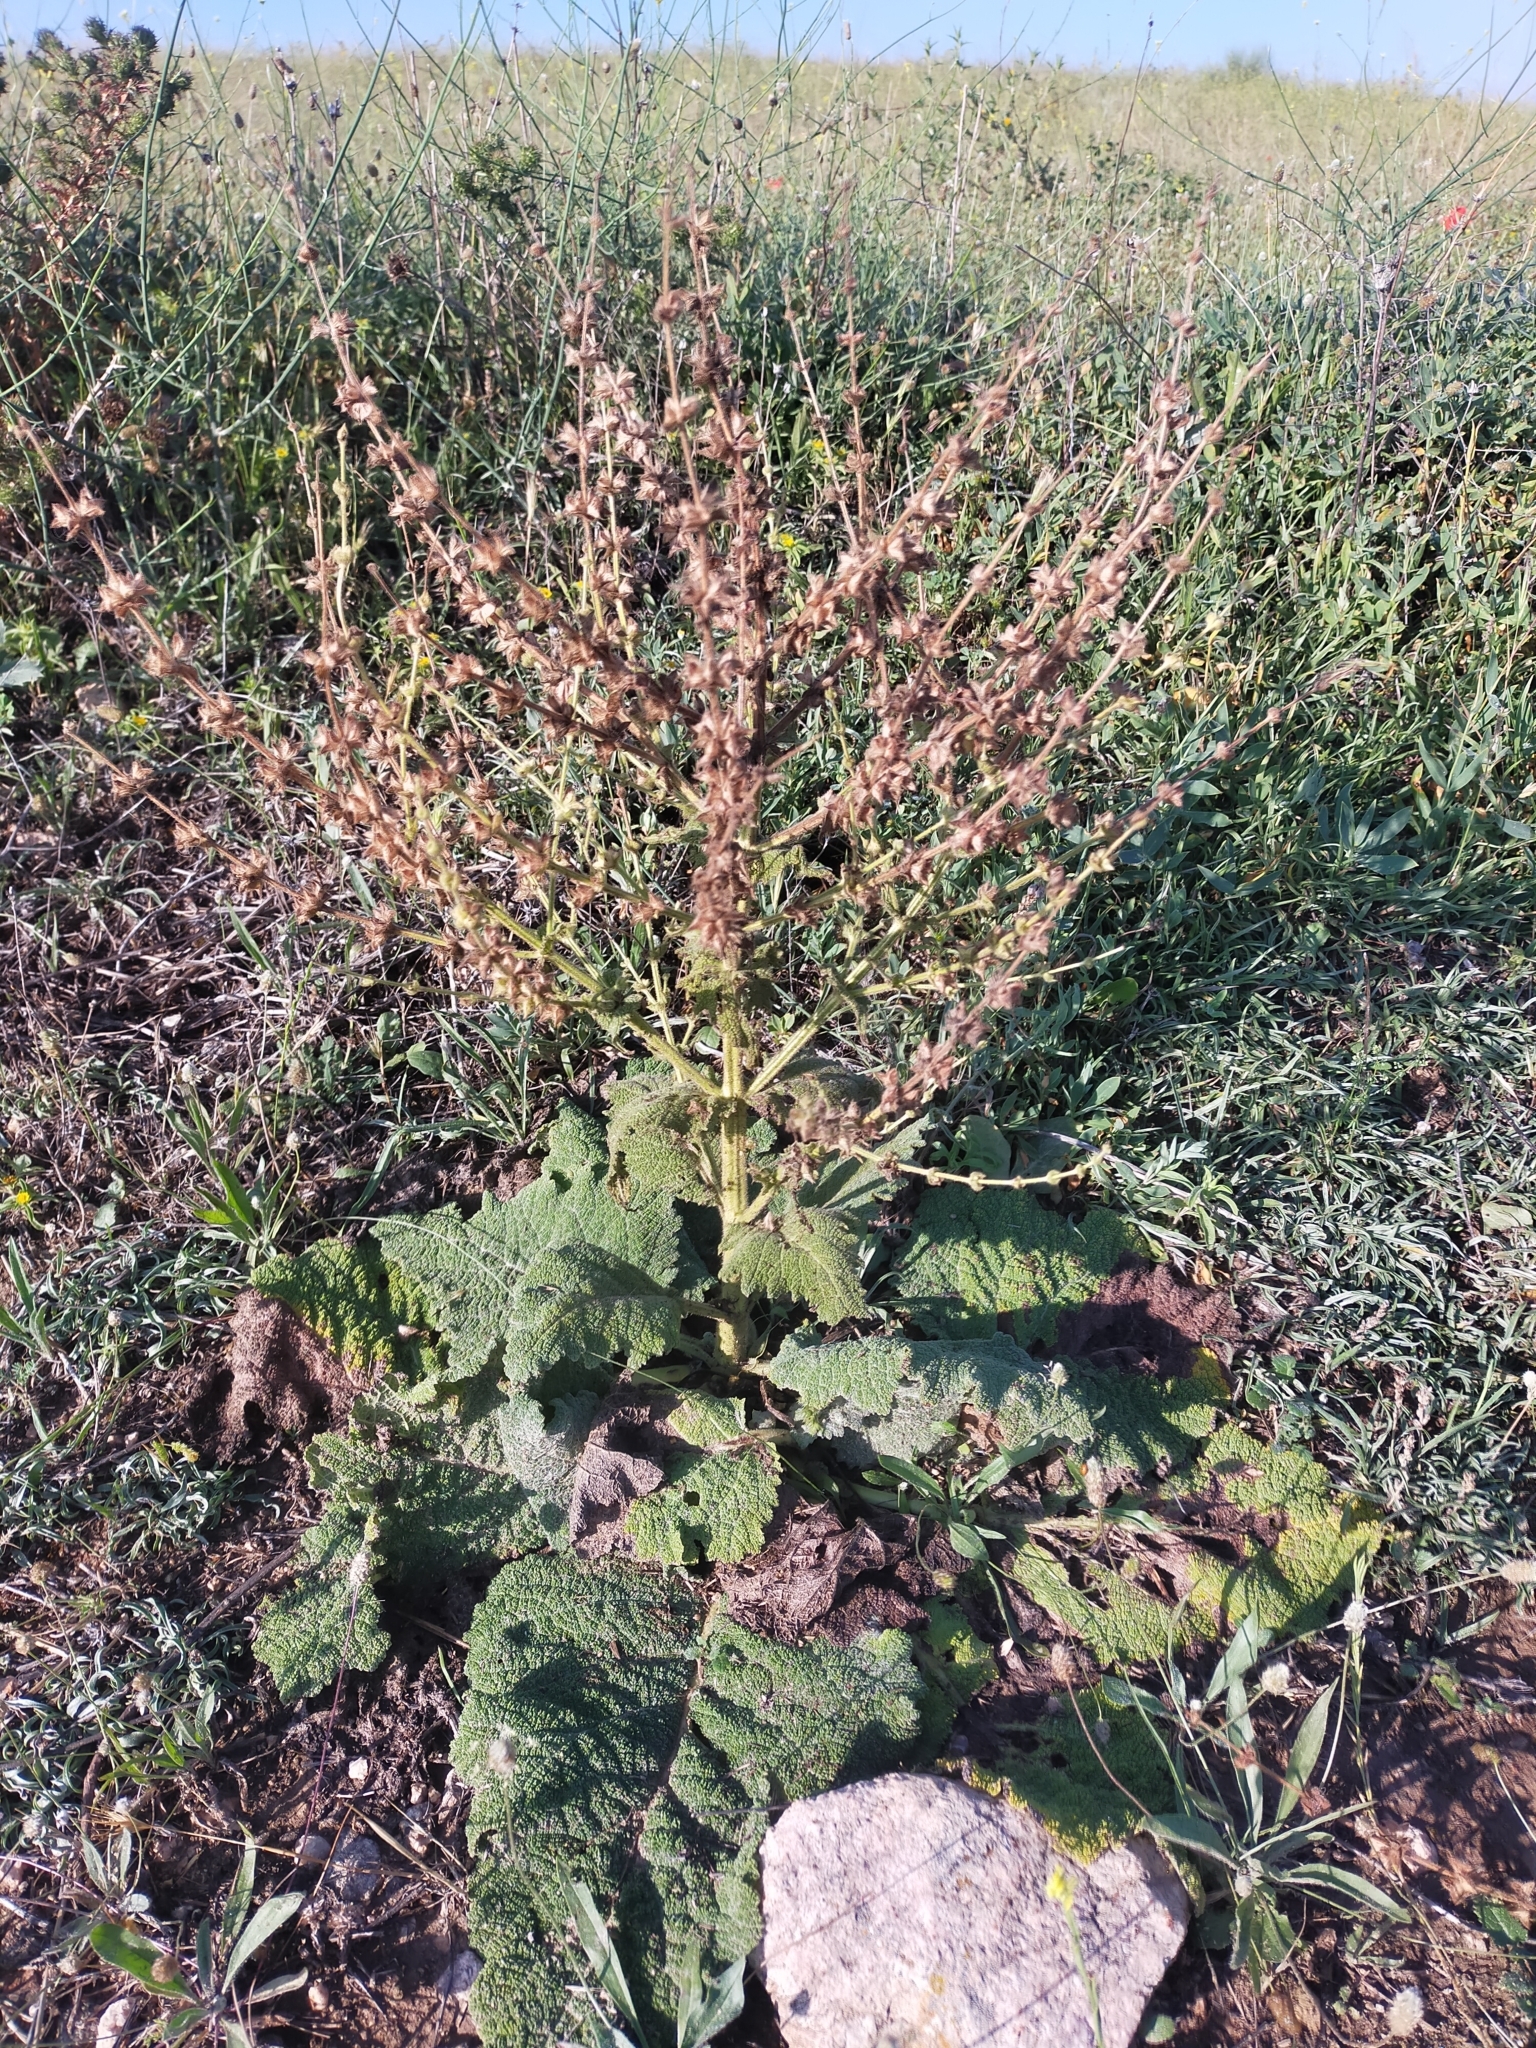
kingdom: Plantae
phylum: Tracheophyta
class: Magnoliopsida
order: Lamiales
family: Lamiaceae
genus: Salvia
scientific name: Salvia argentea
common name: Silver sage
